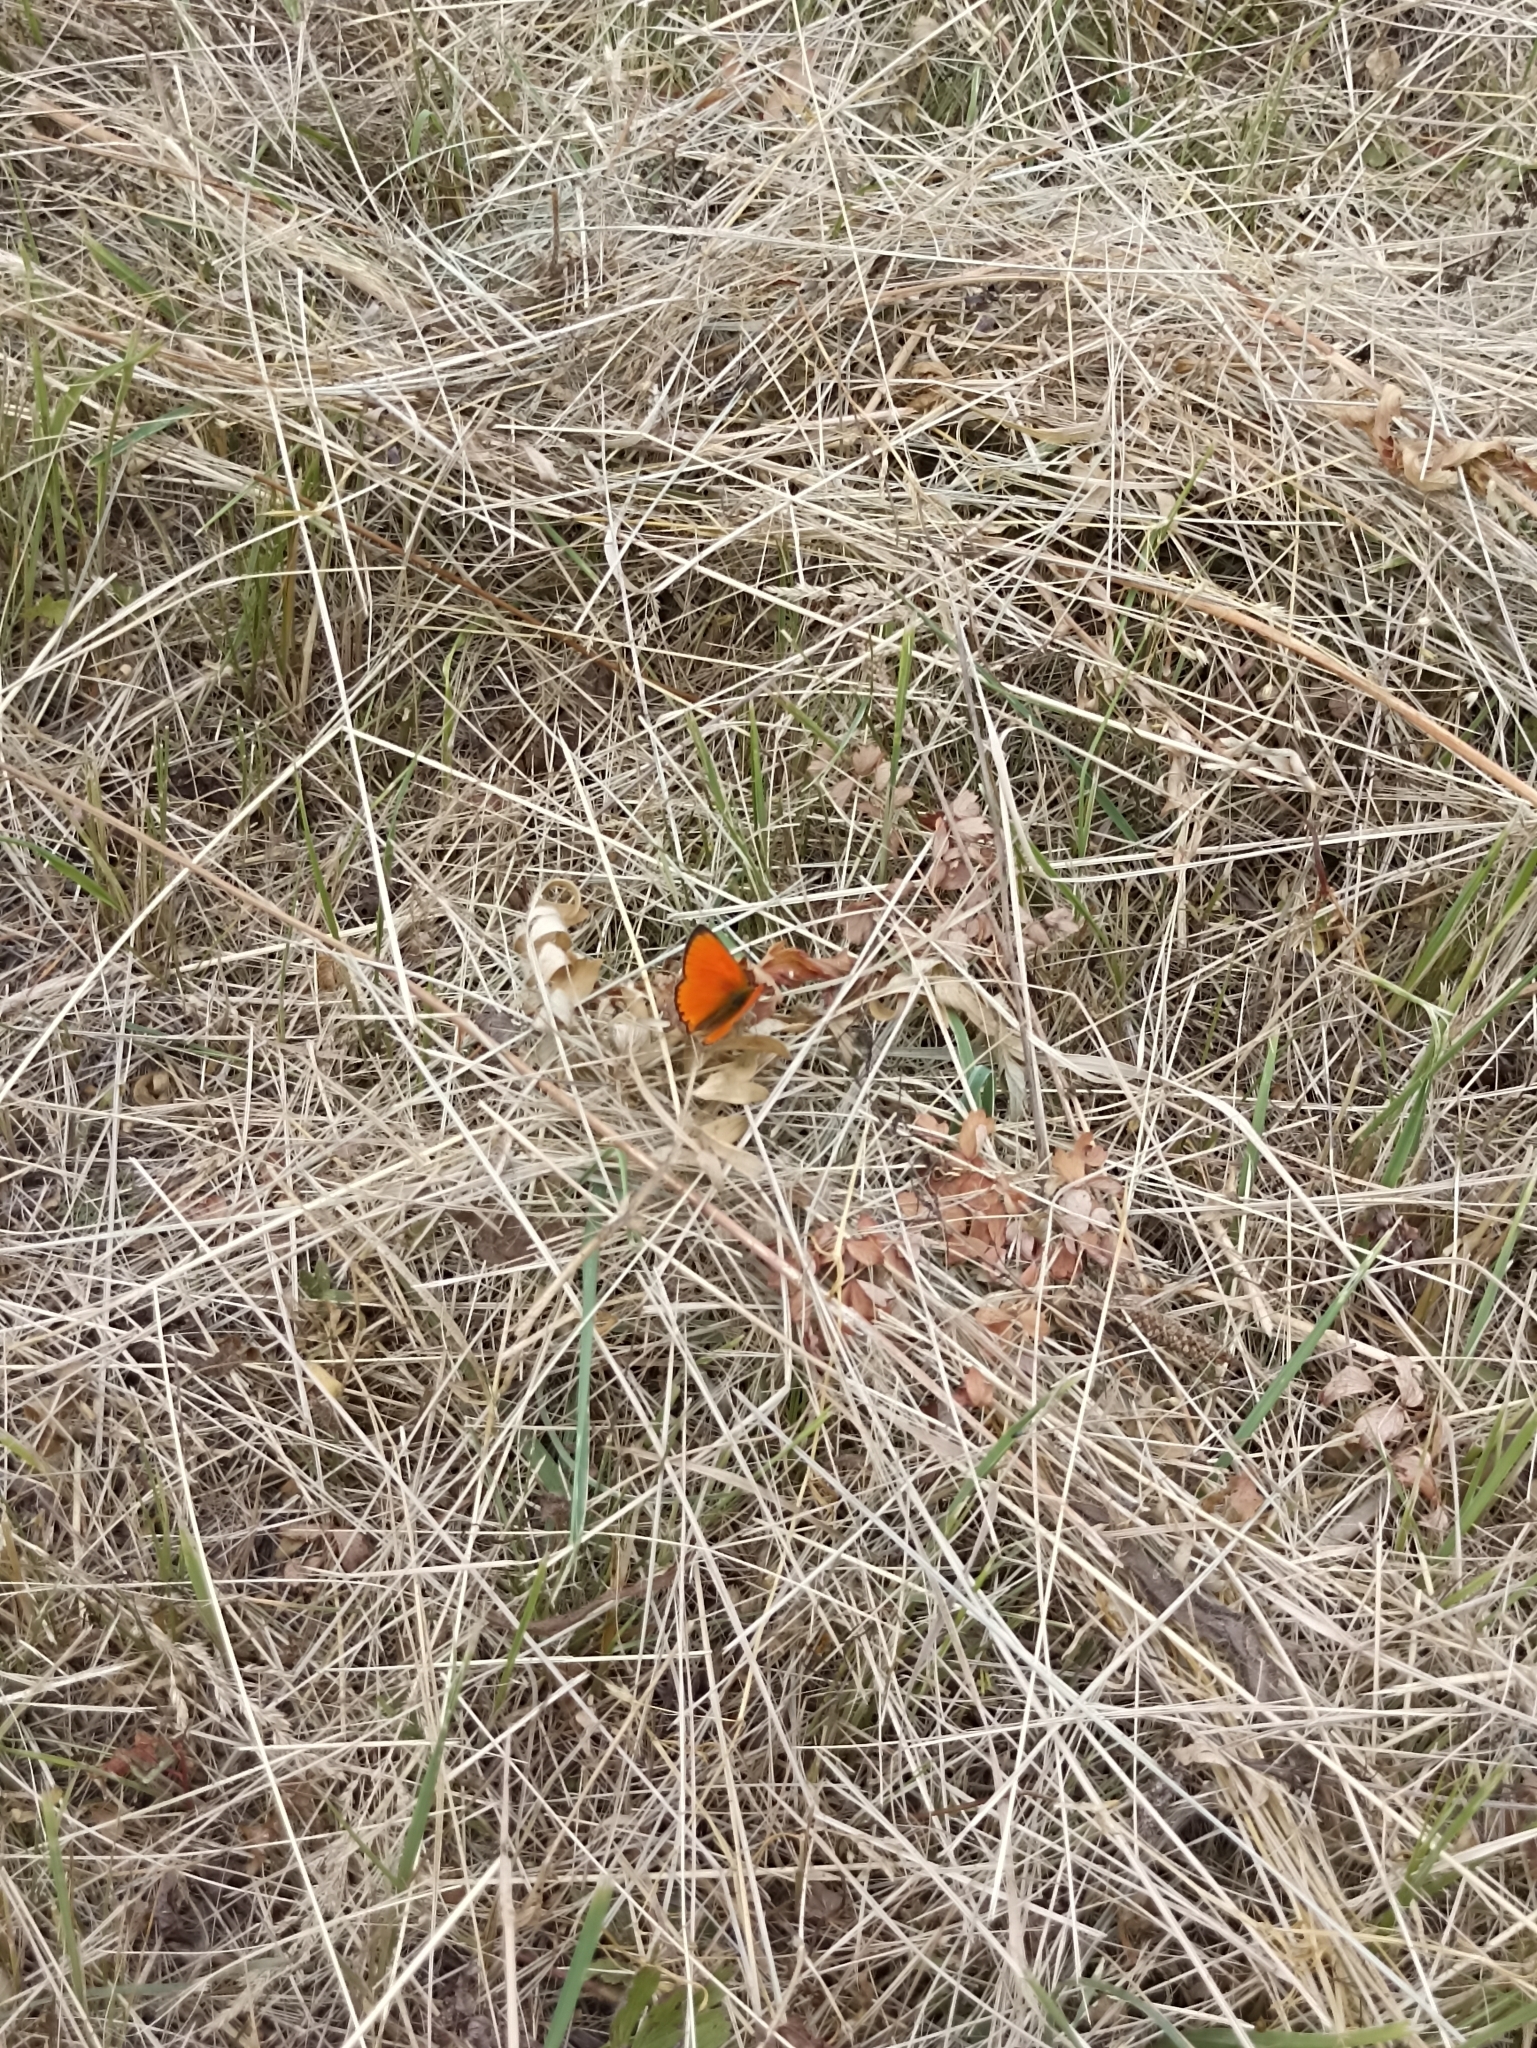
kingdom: Animalia
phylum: Arthropoda
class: Insecta
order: Lepidoptera
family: Lycaenidae
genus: Lycaena
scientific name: Lycaena virgaureae
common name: Scarce copper
